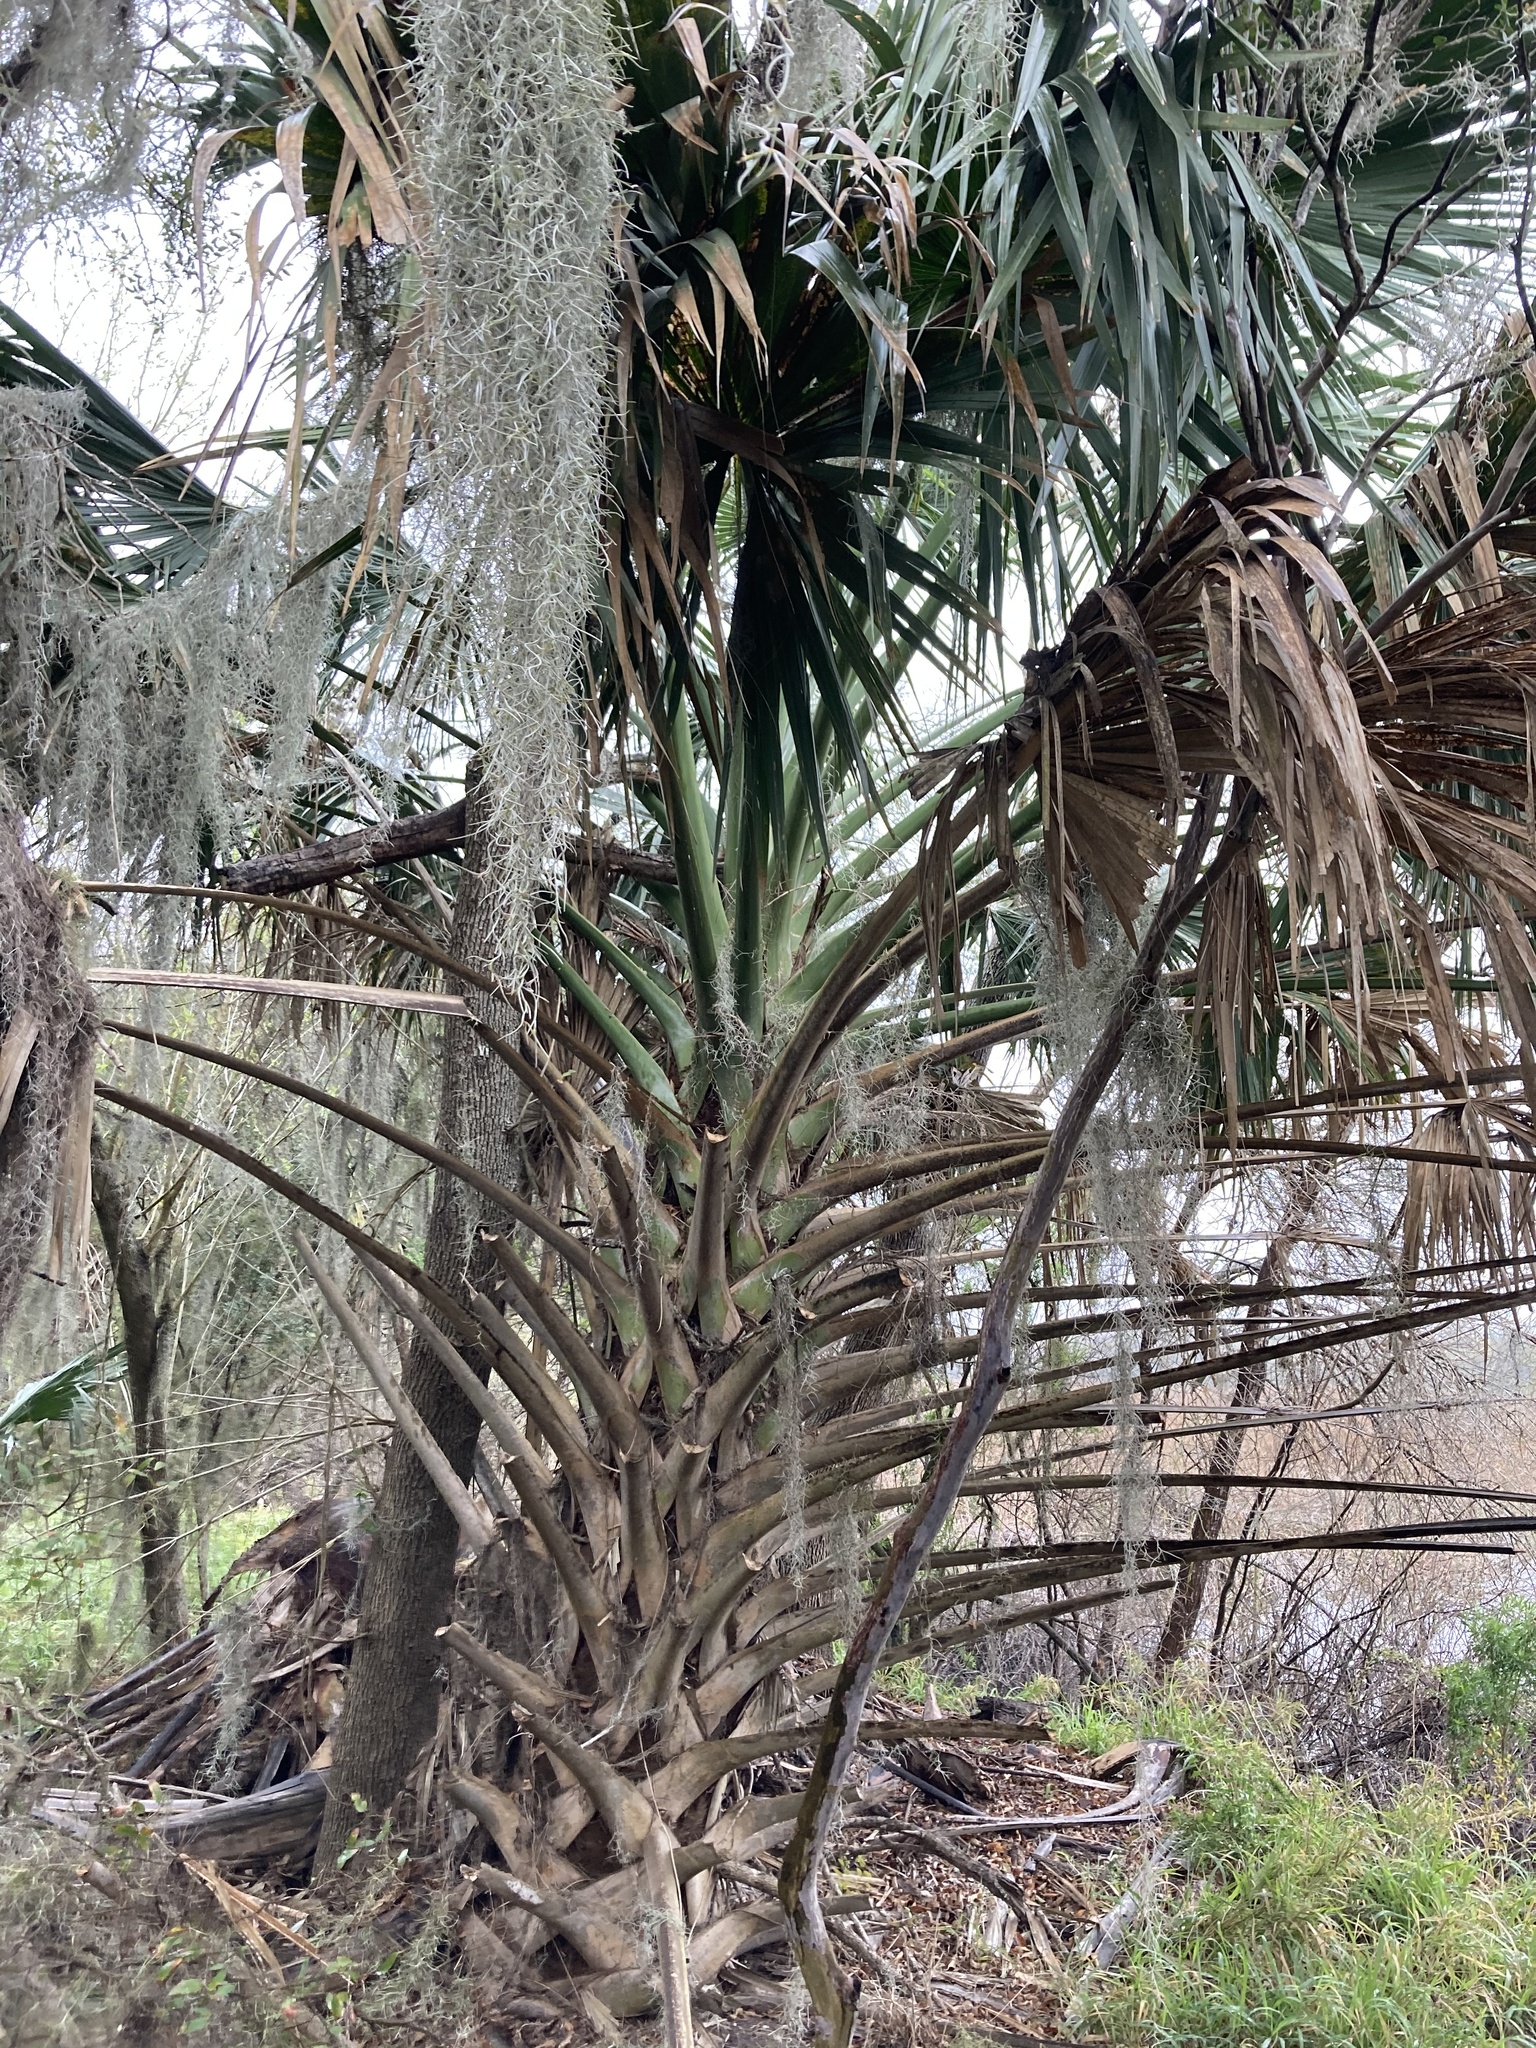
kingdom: Plantae
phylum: Tracheophyta
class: Liliopsida
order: Arecales
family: Arecaceae
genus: Sabal
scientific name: Sabal mexicana
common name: Texas palmetto
